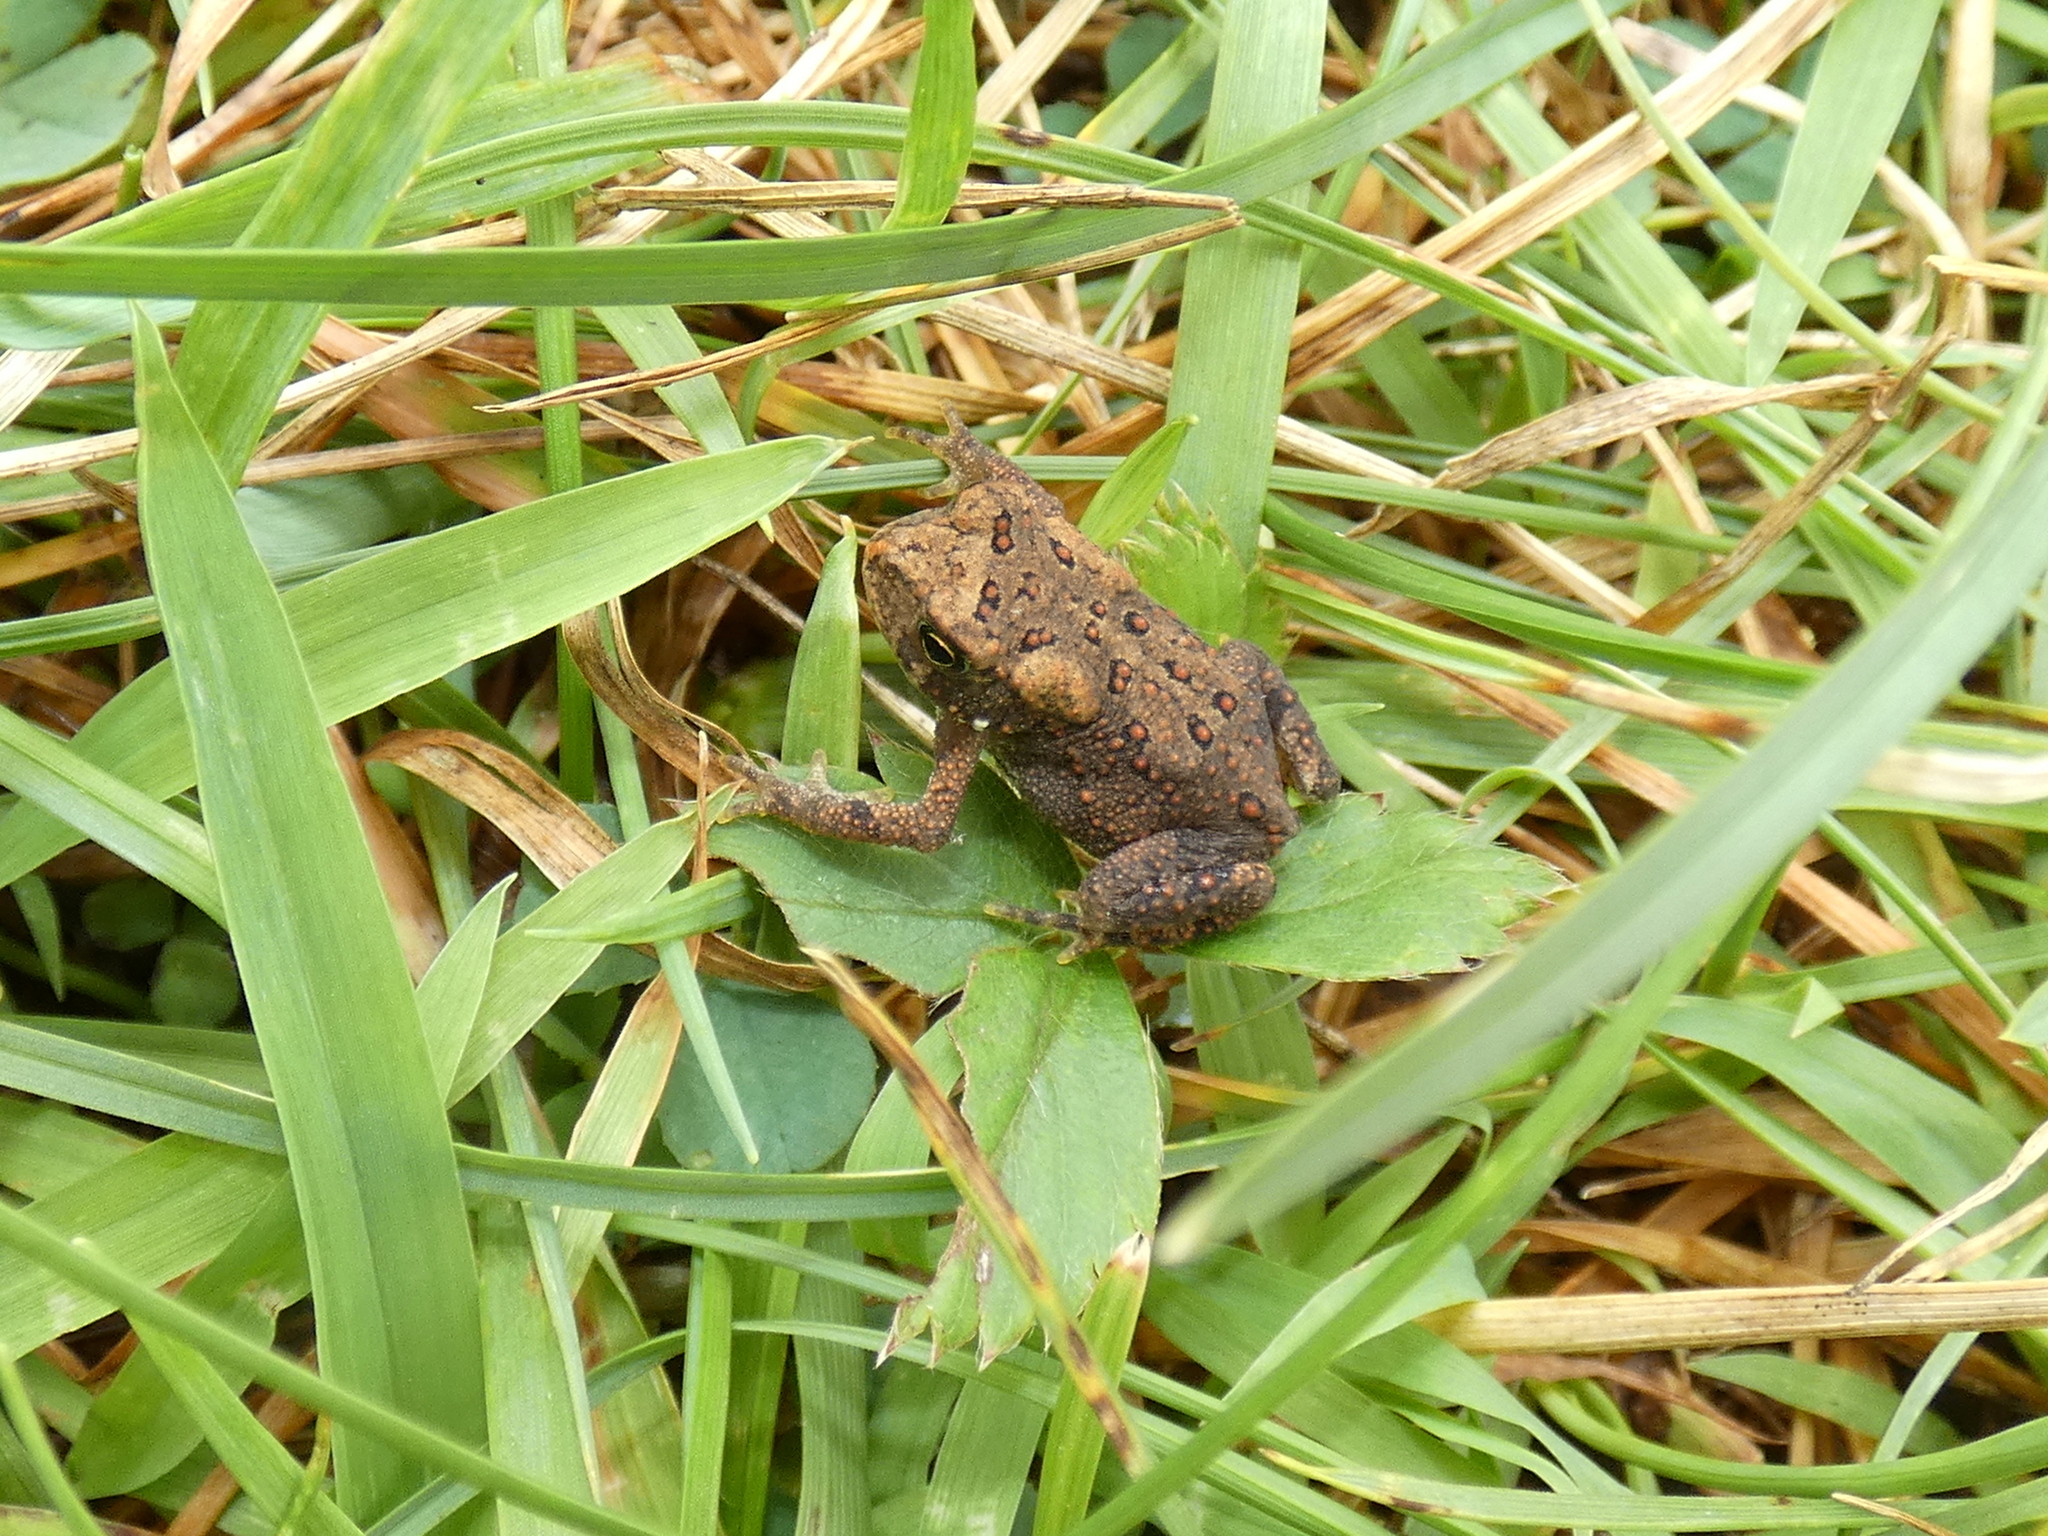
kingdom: Animalia
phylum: Chordata
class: Amphibia
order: Anura
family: Bufonidae
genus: Anaxyrus
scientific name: Anaxyrus americanus
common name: American toad
